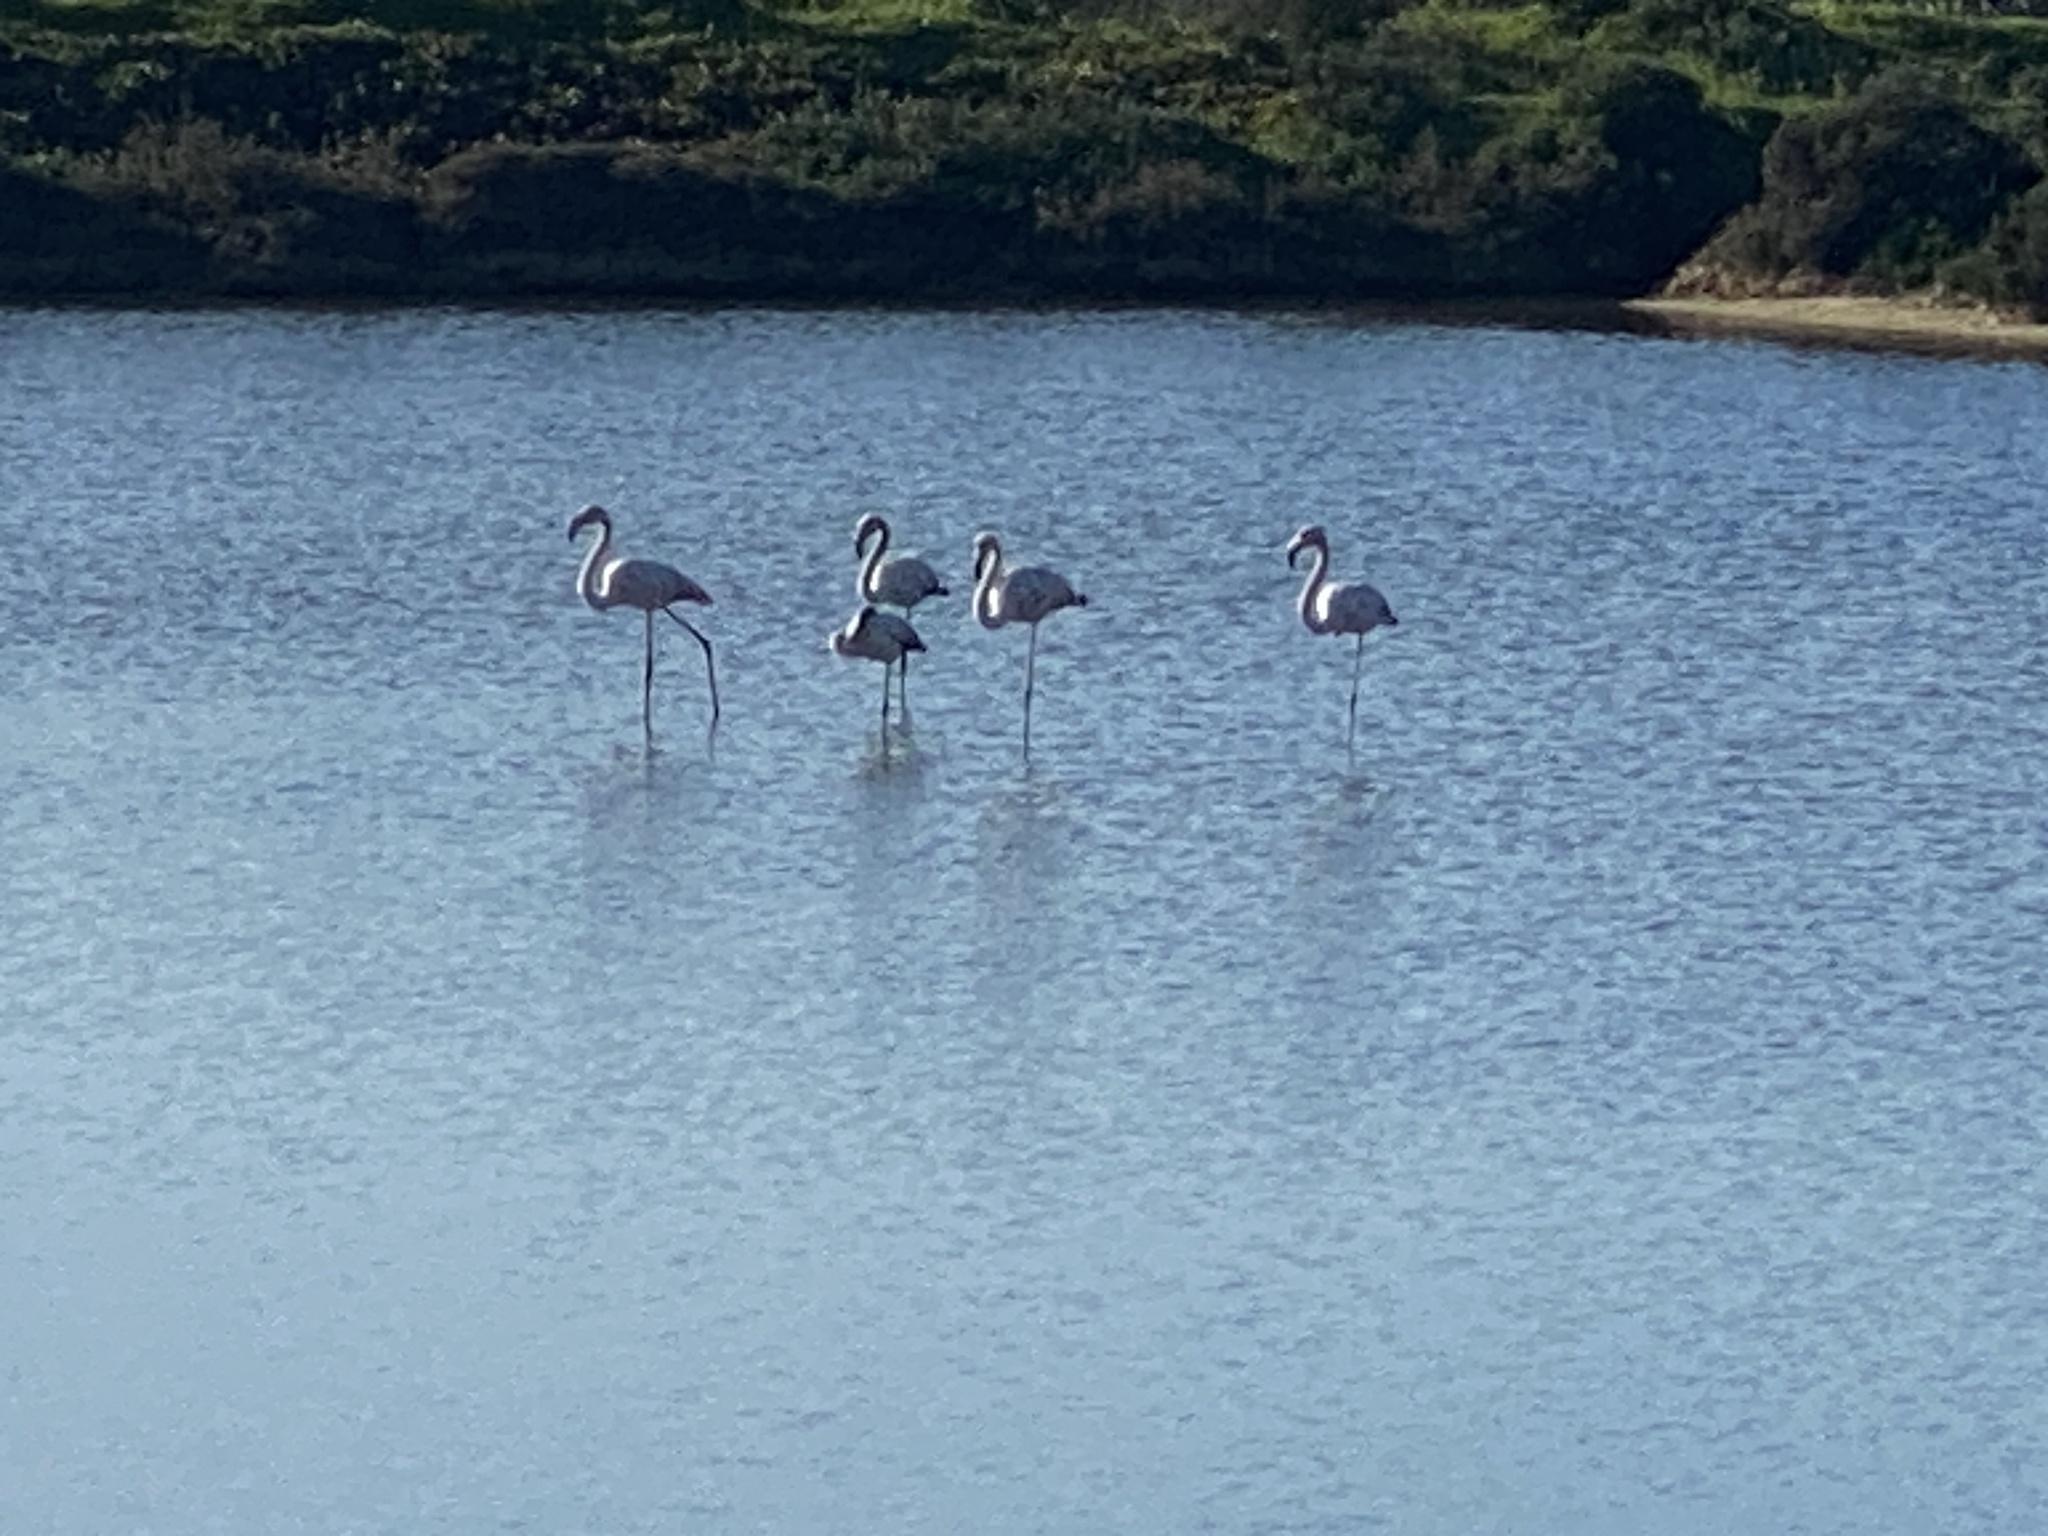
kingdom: Animalia
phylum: Chordata
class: Aves
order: Phoenicopteriformes
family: Phoenicopteridae
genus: Phoenicopterus
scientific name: Phoenicopterus roseus
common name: Greater flamingo
